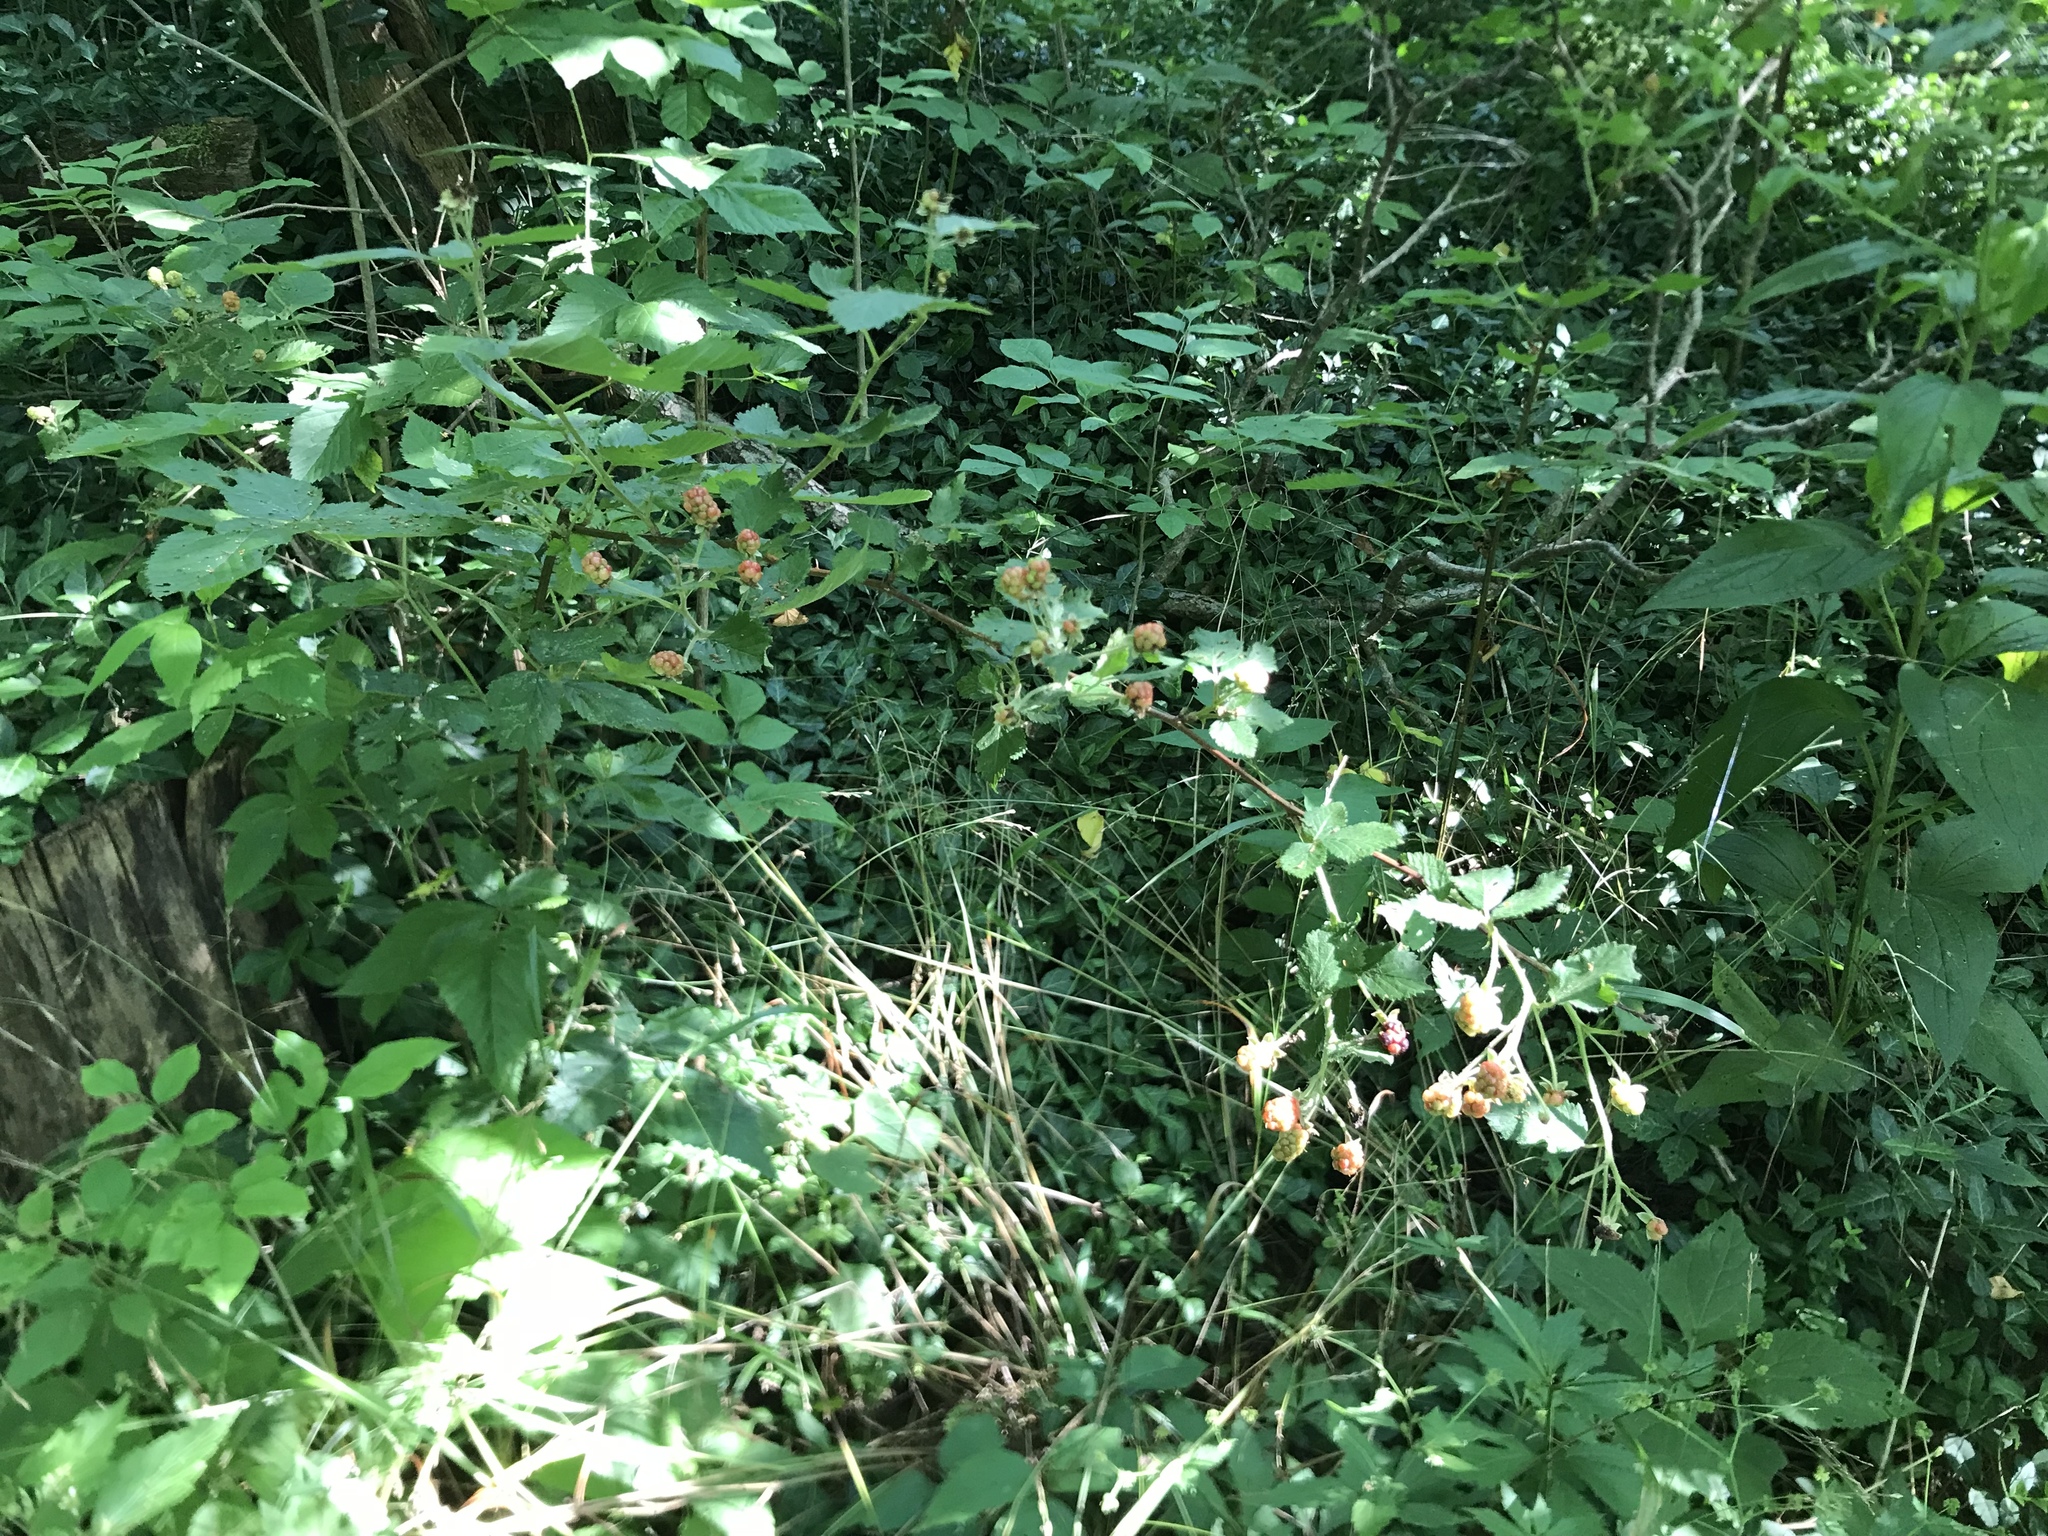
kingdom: Plantae
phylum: Tracheophyta
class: Magnoliopsida
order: Rosales
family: Rosaceae
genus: Rubus
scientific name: Rubus allegheniensis
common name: Allegheny blackberry
